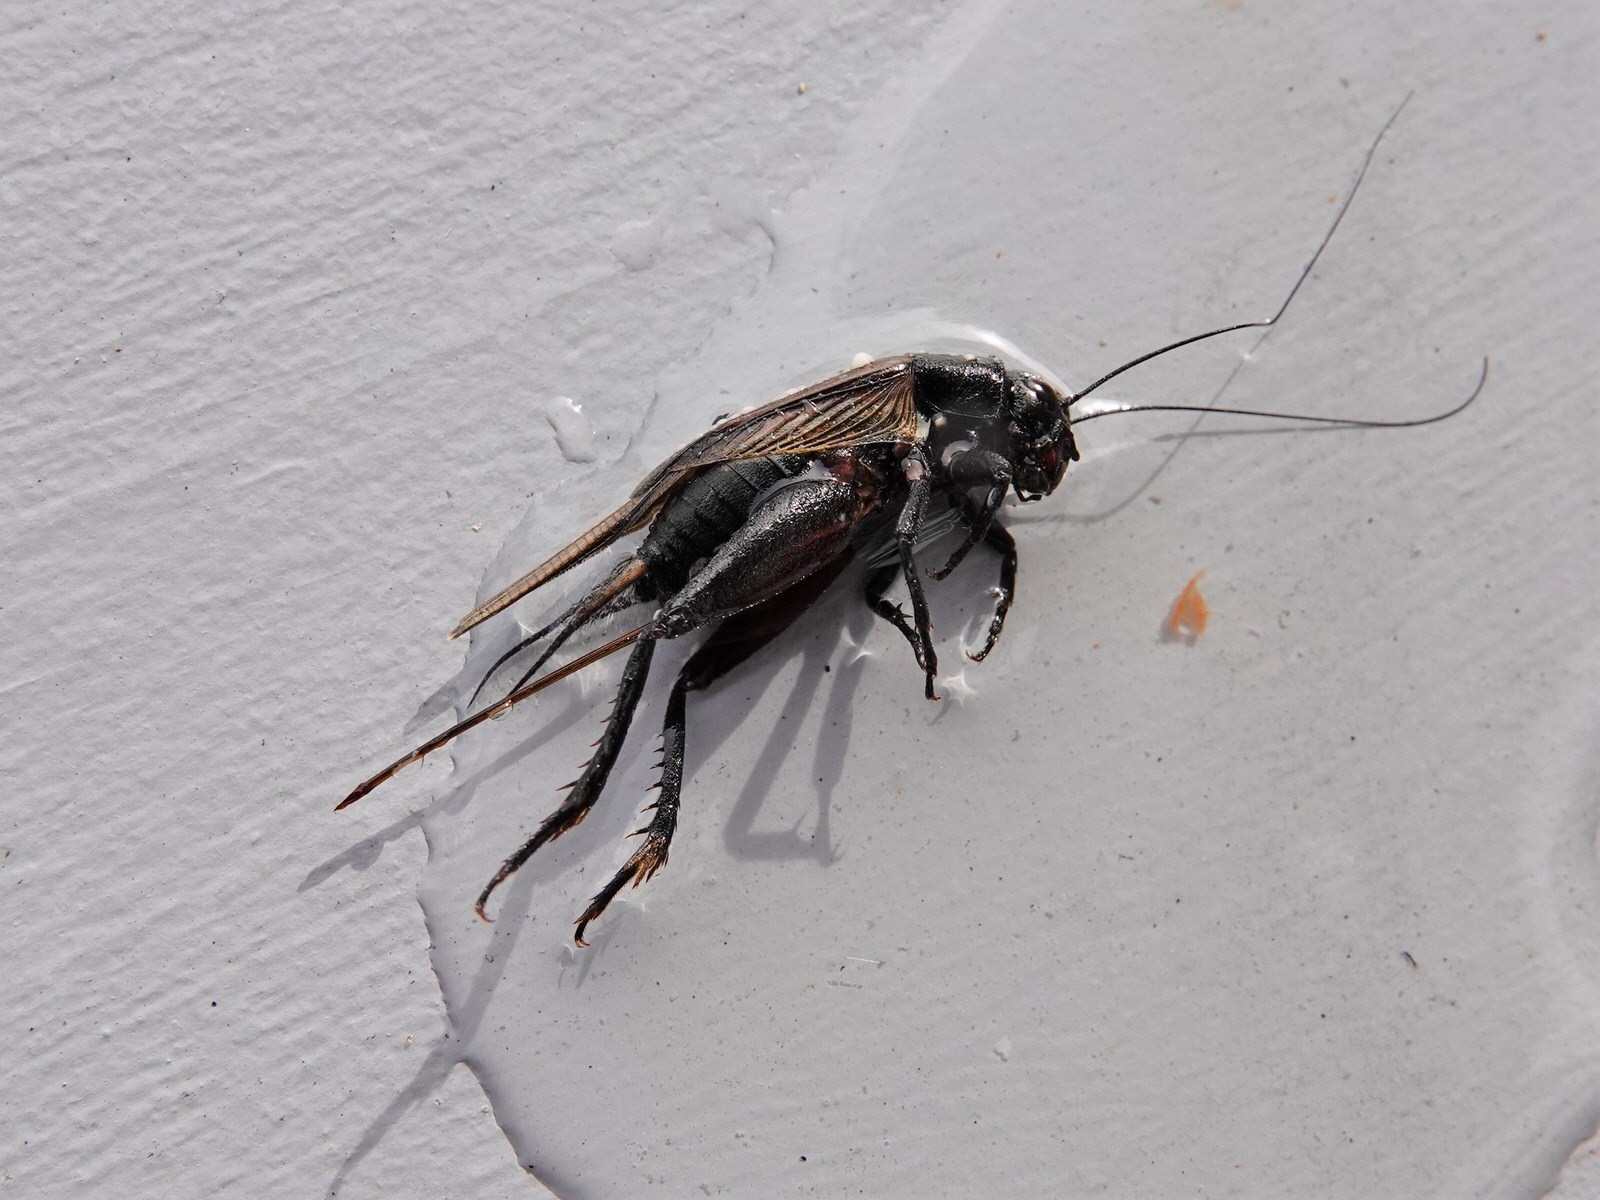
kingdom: Animalia
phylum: Arthropoda
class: Insecta
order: Orthoptera
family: Gryllidae
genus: Teleogryllus
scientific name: Teleogryllus commodus
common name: Black field cricket
